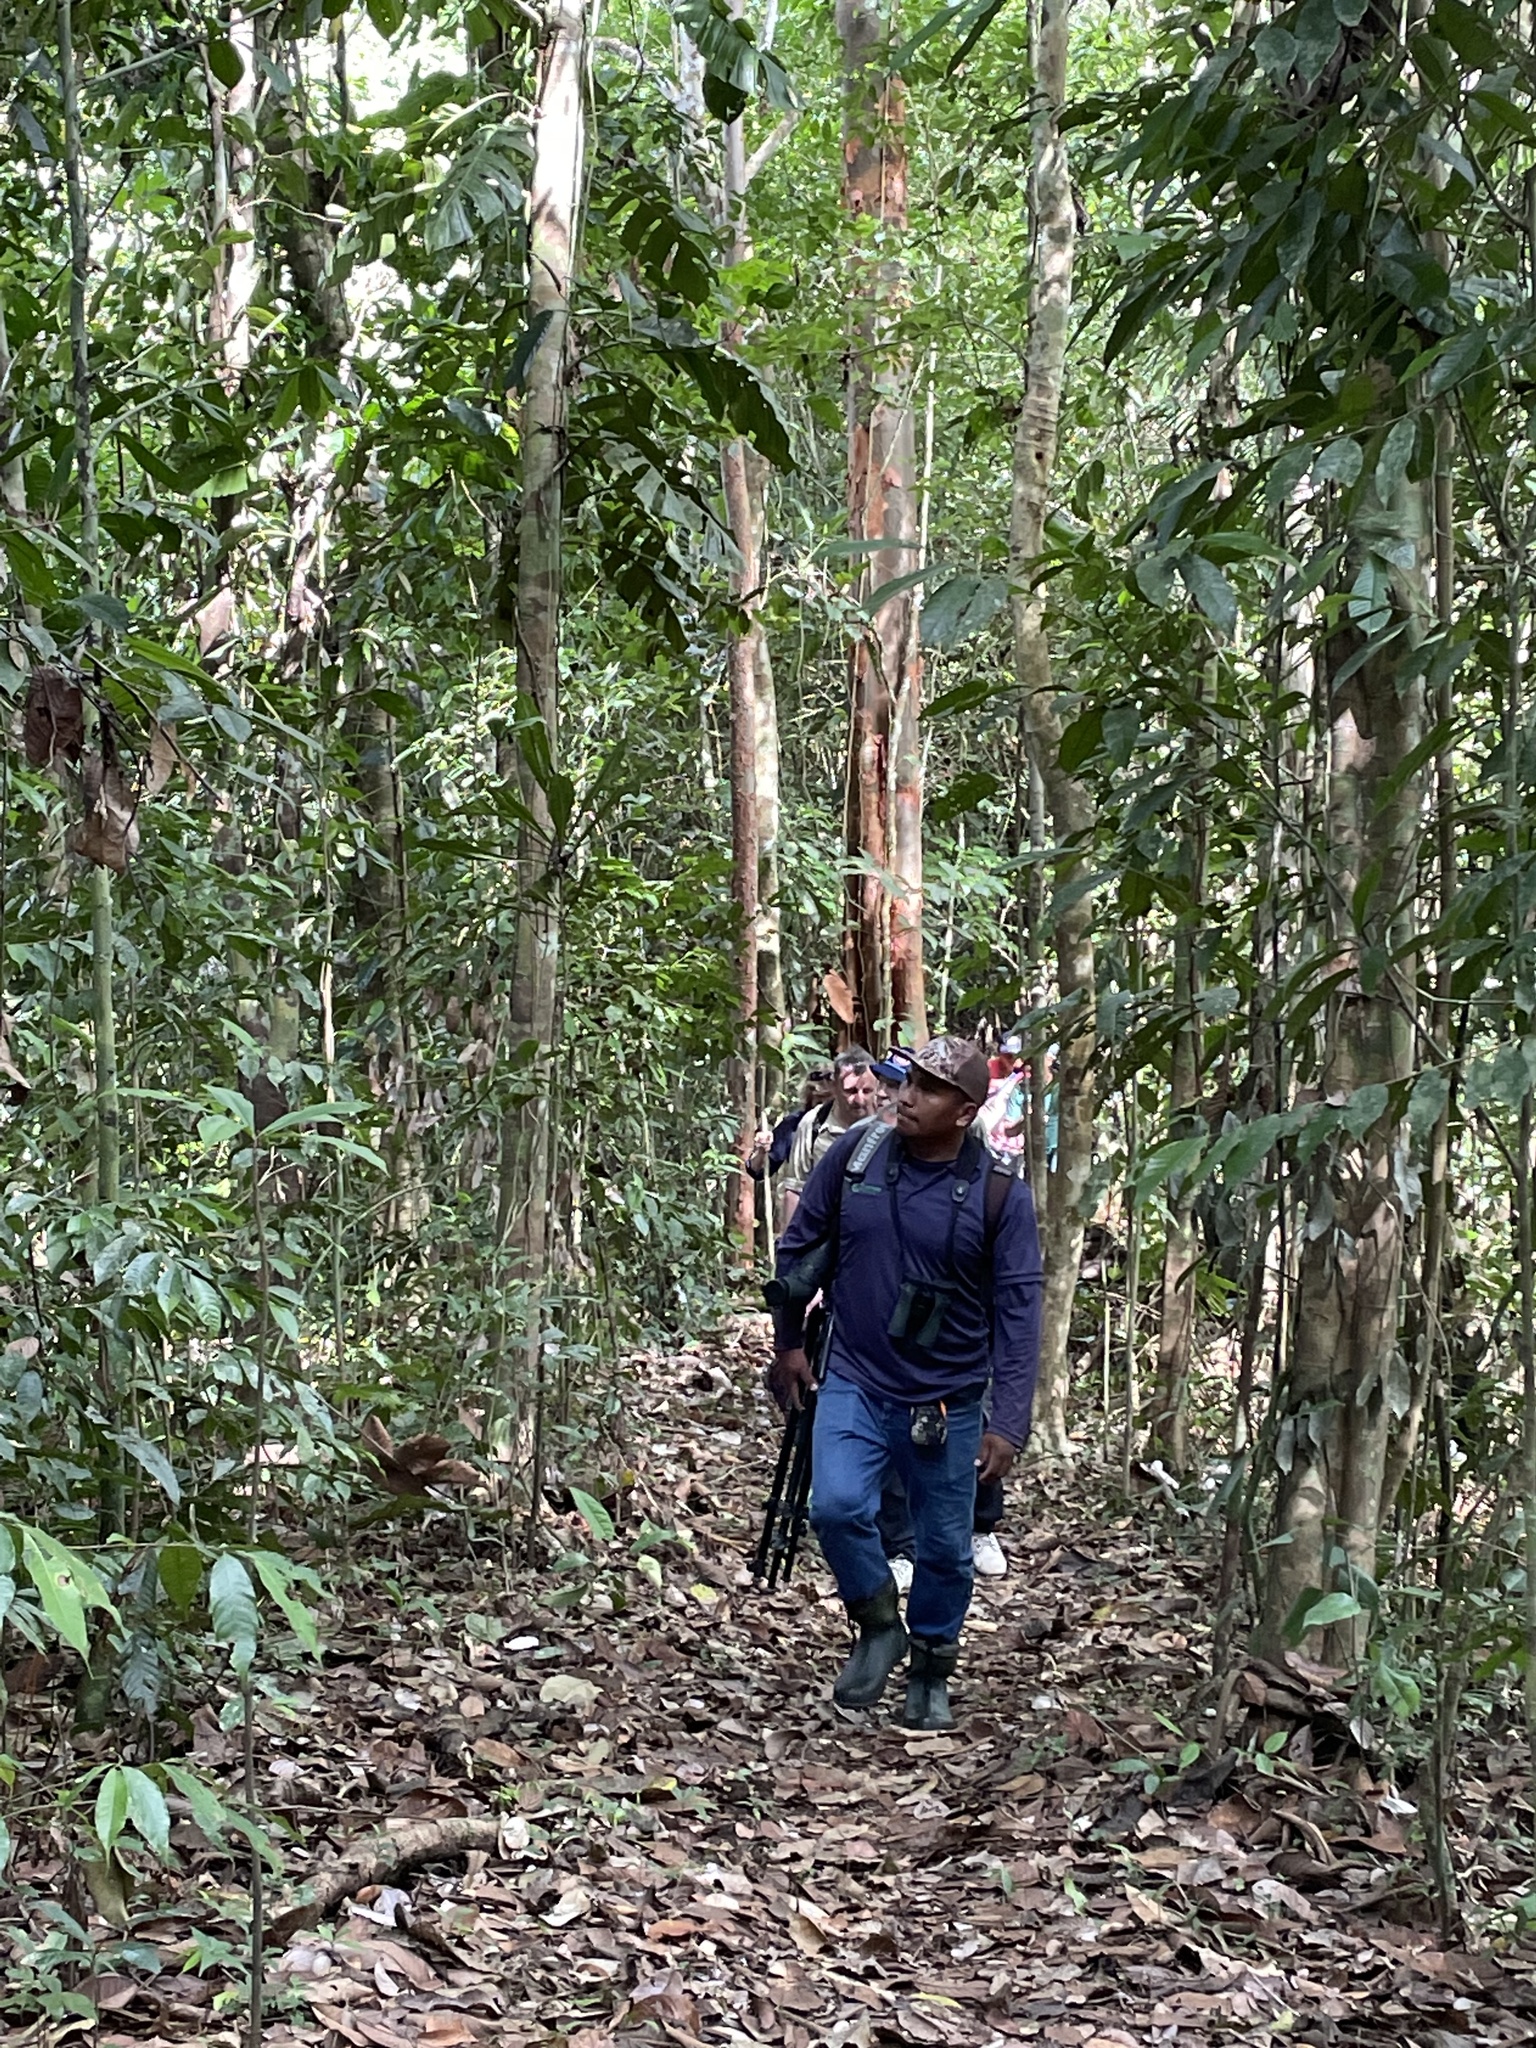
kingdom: Animalia
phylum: Chordata
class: Aves
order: Passeriformes
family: Pipridae
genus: Pipra
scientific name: Pipra erythrocephala
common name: Golden-headed manakin
